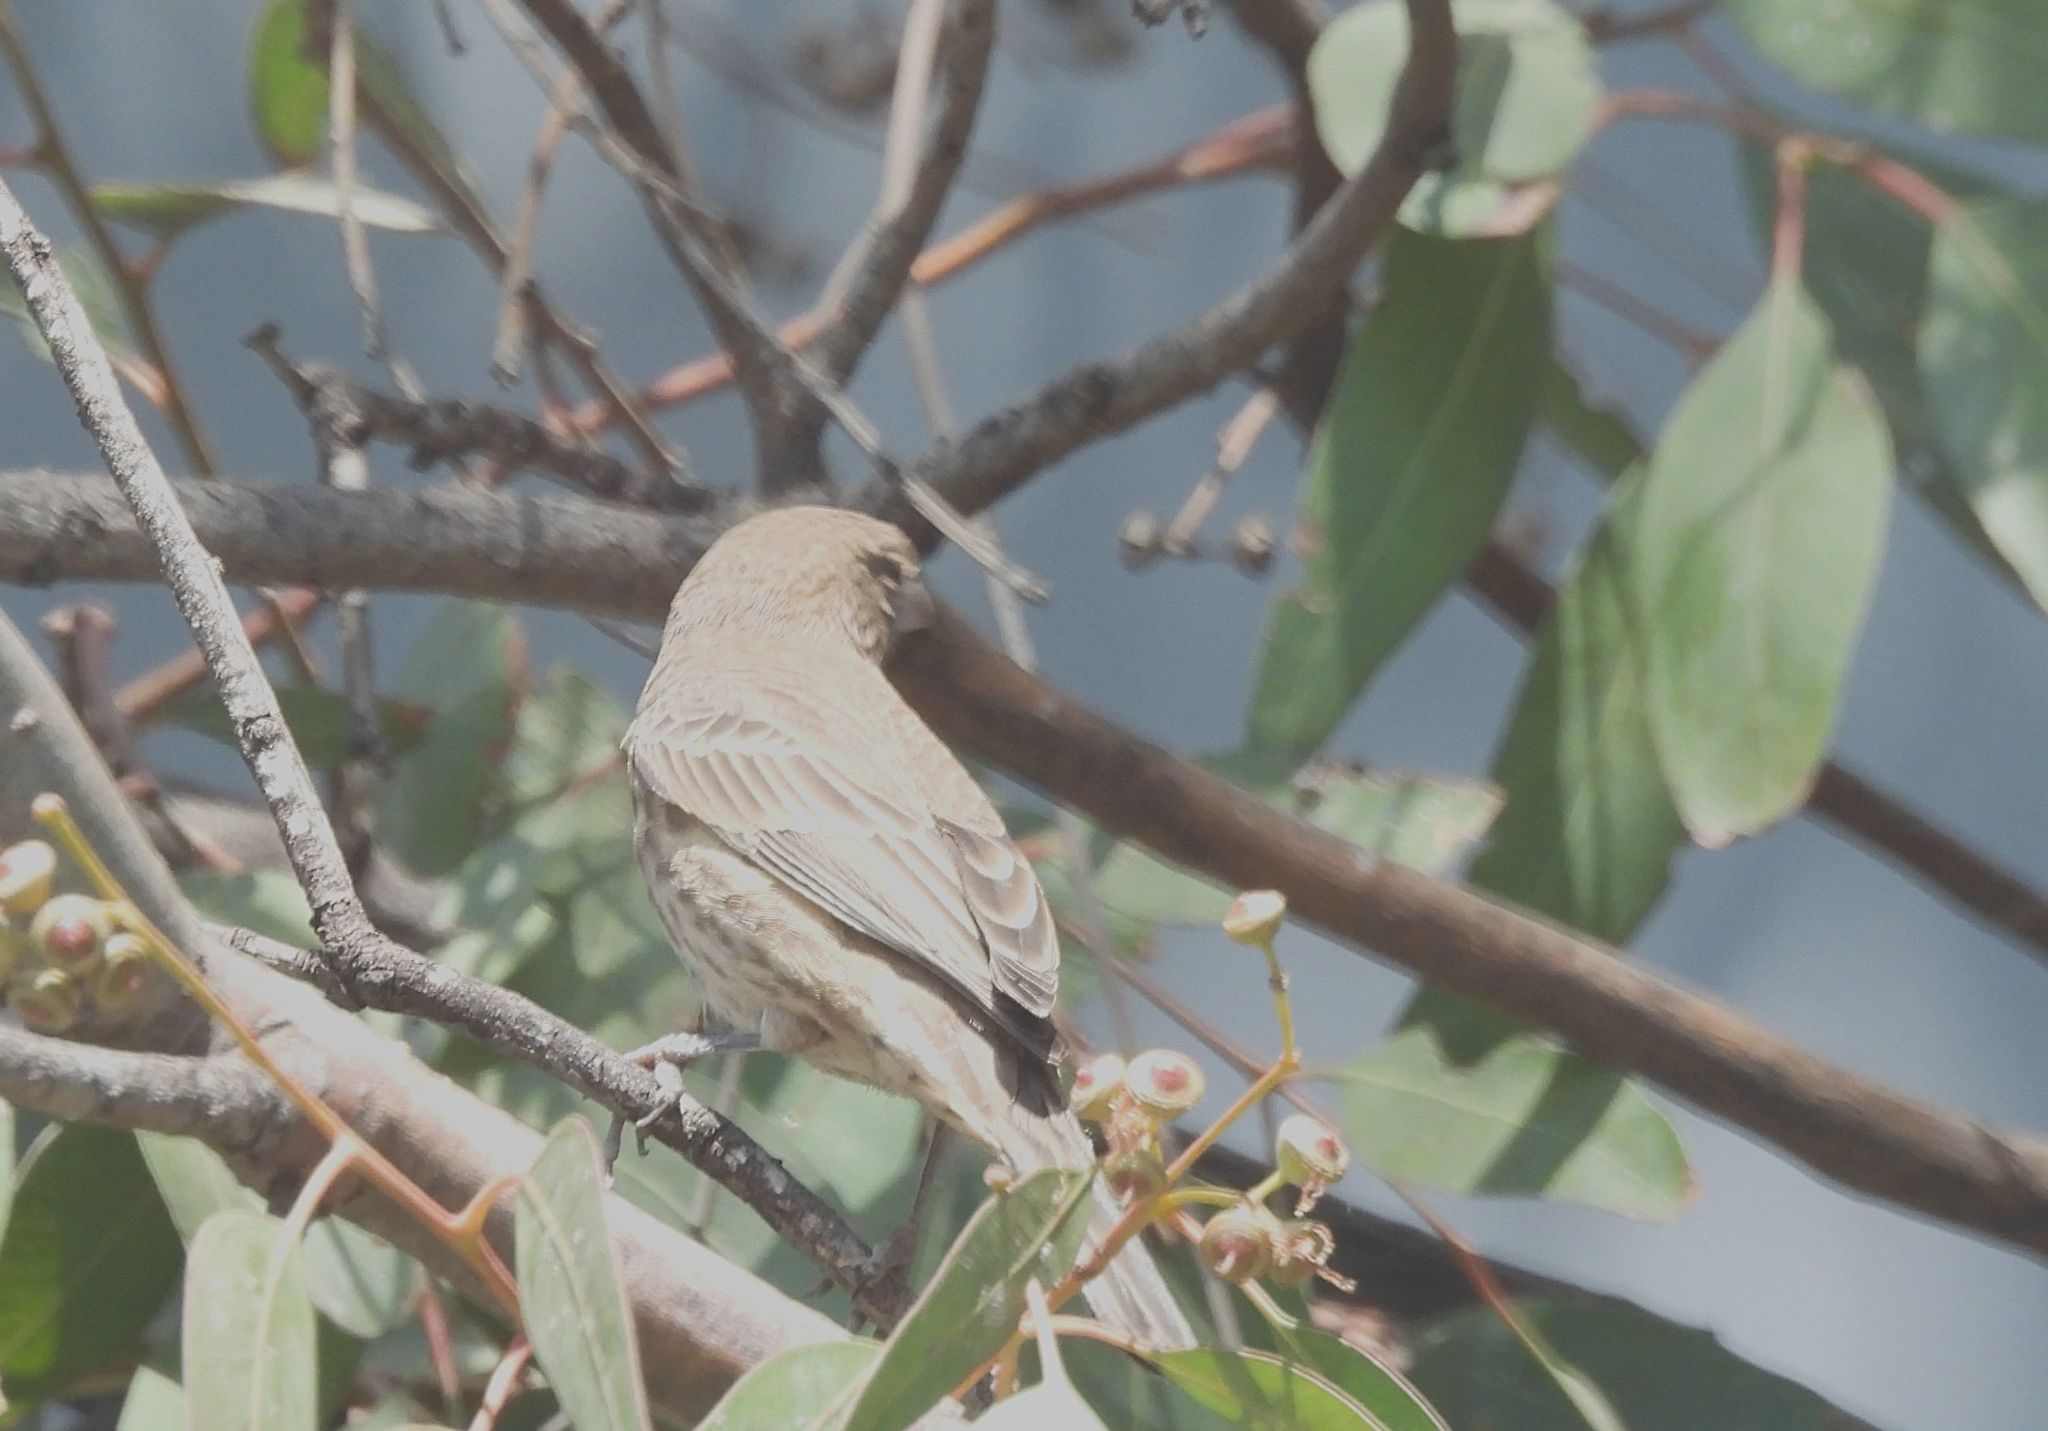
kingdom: Animalia
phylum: Chordata
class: Aves
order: Passeriformes
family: Fringillidae
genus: Haemorhous
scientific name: Haemorhous mexicanus
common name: House finch
